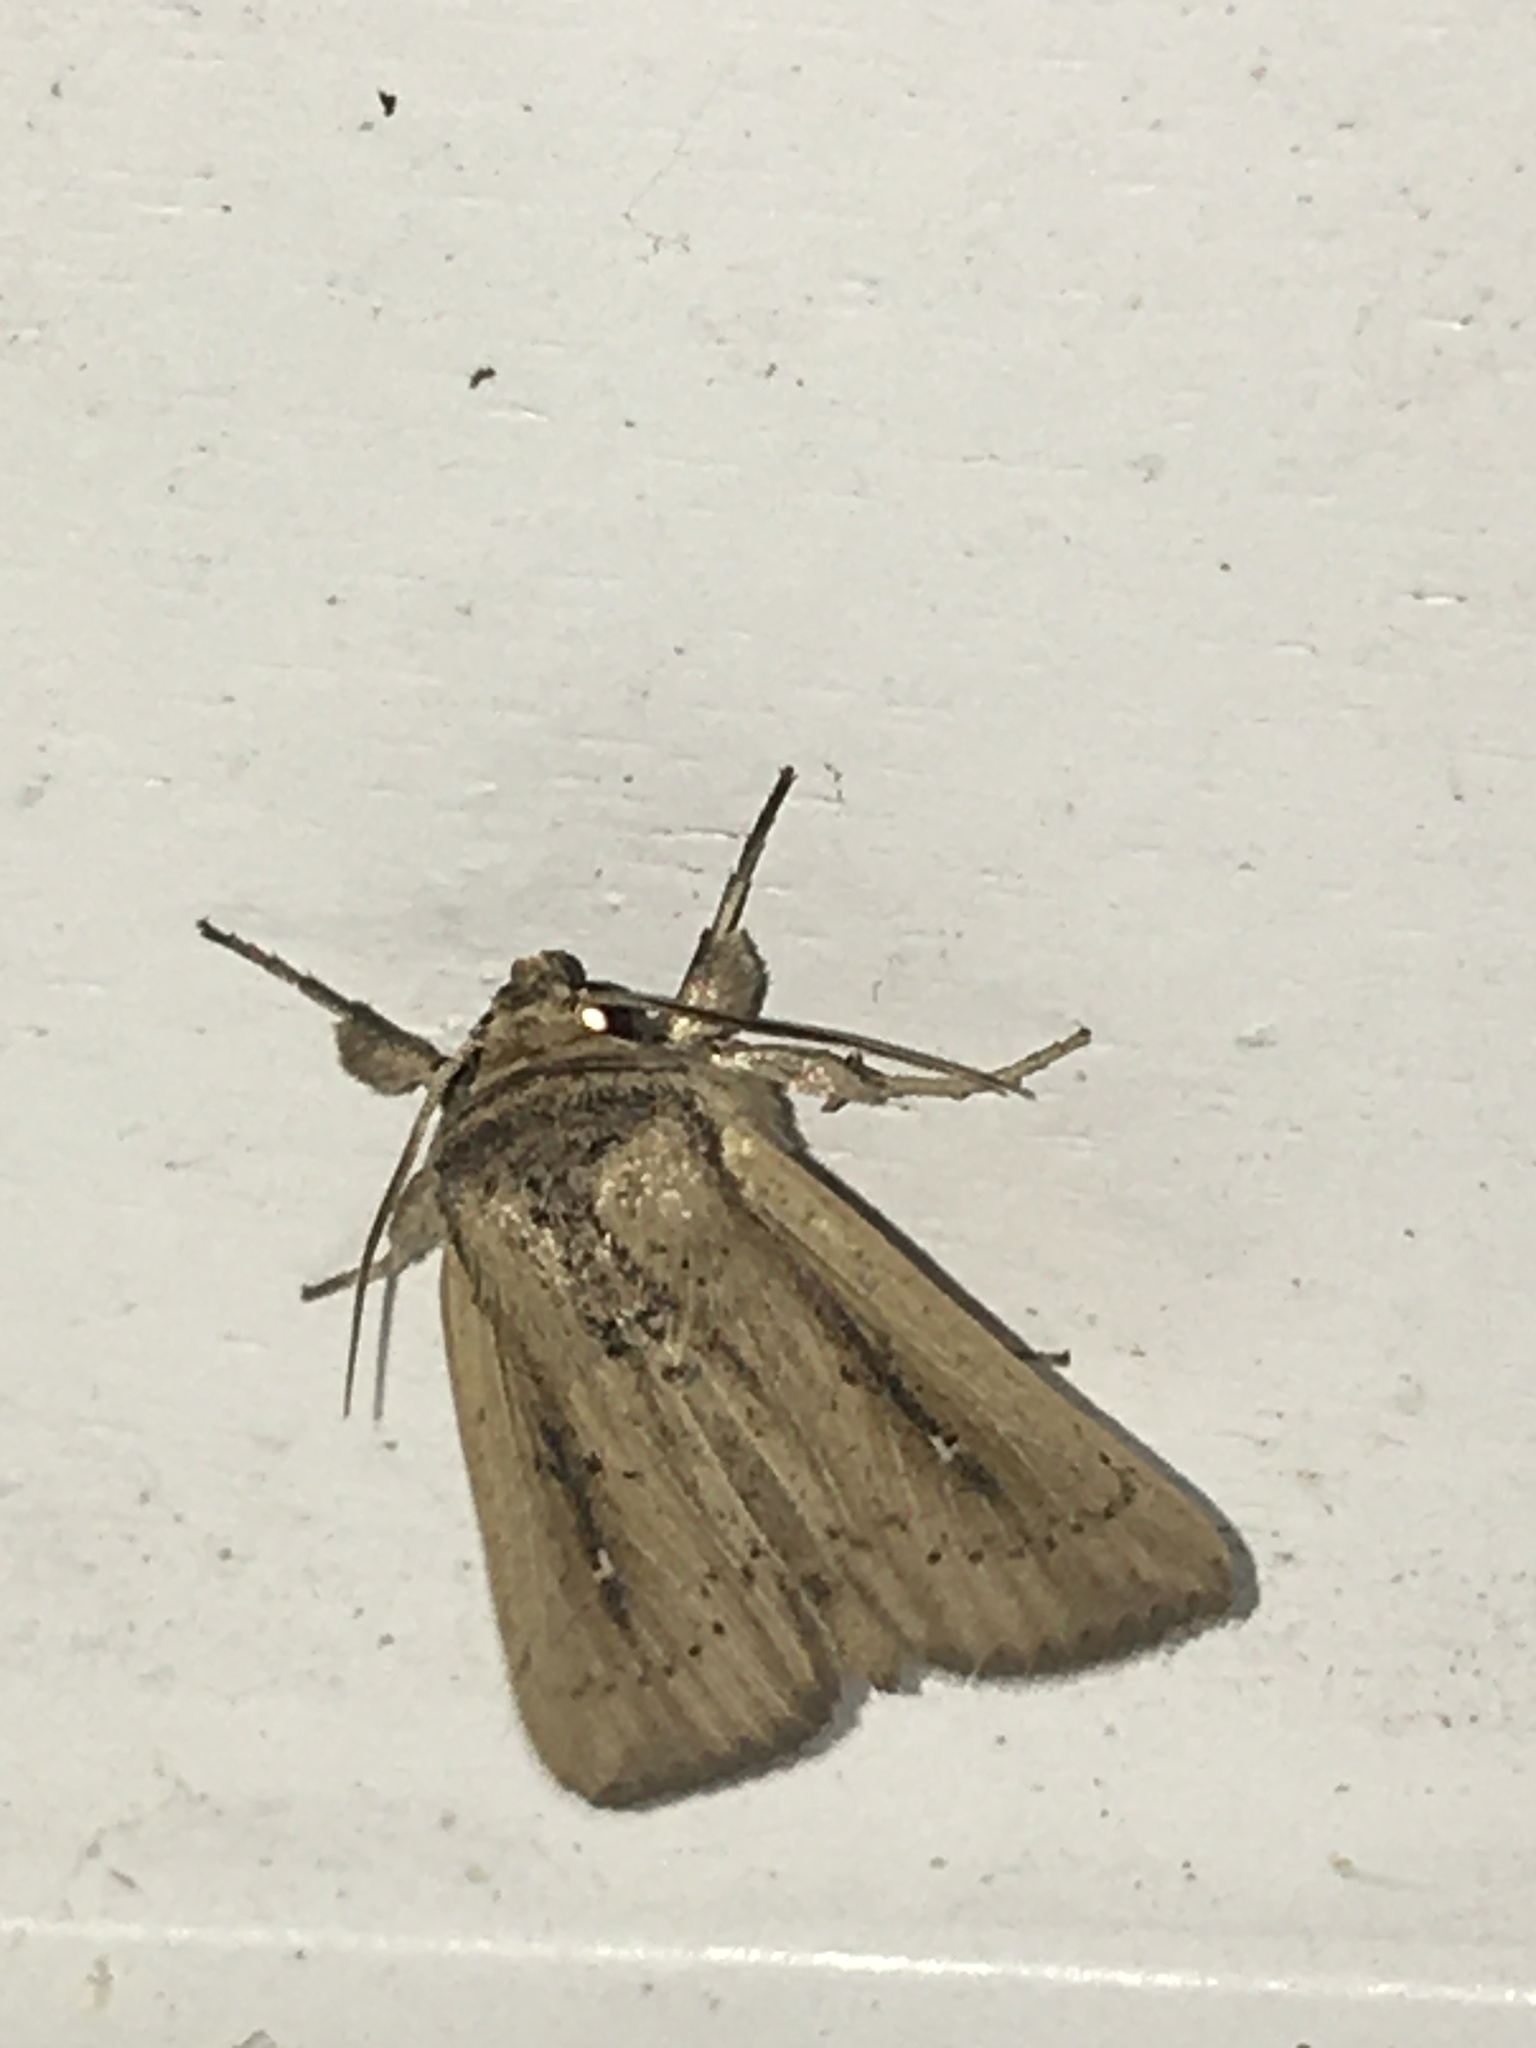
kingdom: Animalia
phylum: Arthropoda
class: Insecta
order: Lepidoptera
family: Noctuidae
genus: Leucania
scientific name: Leucania incognita
